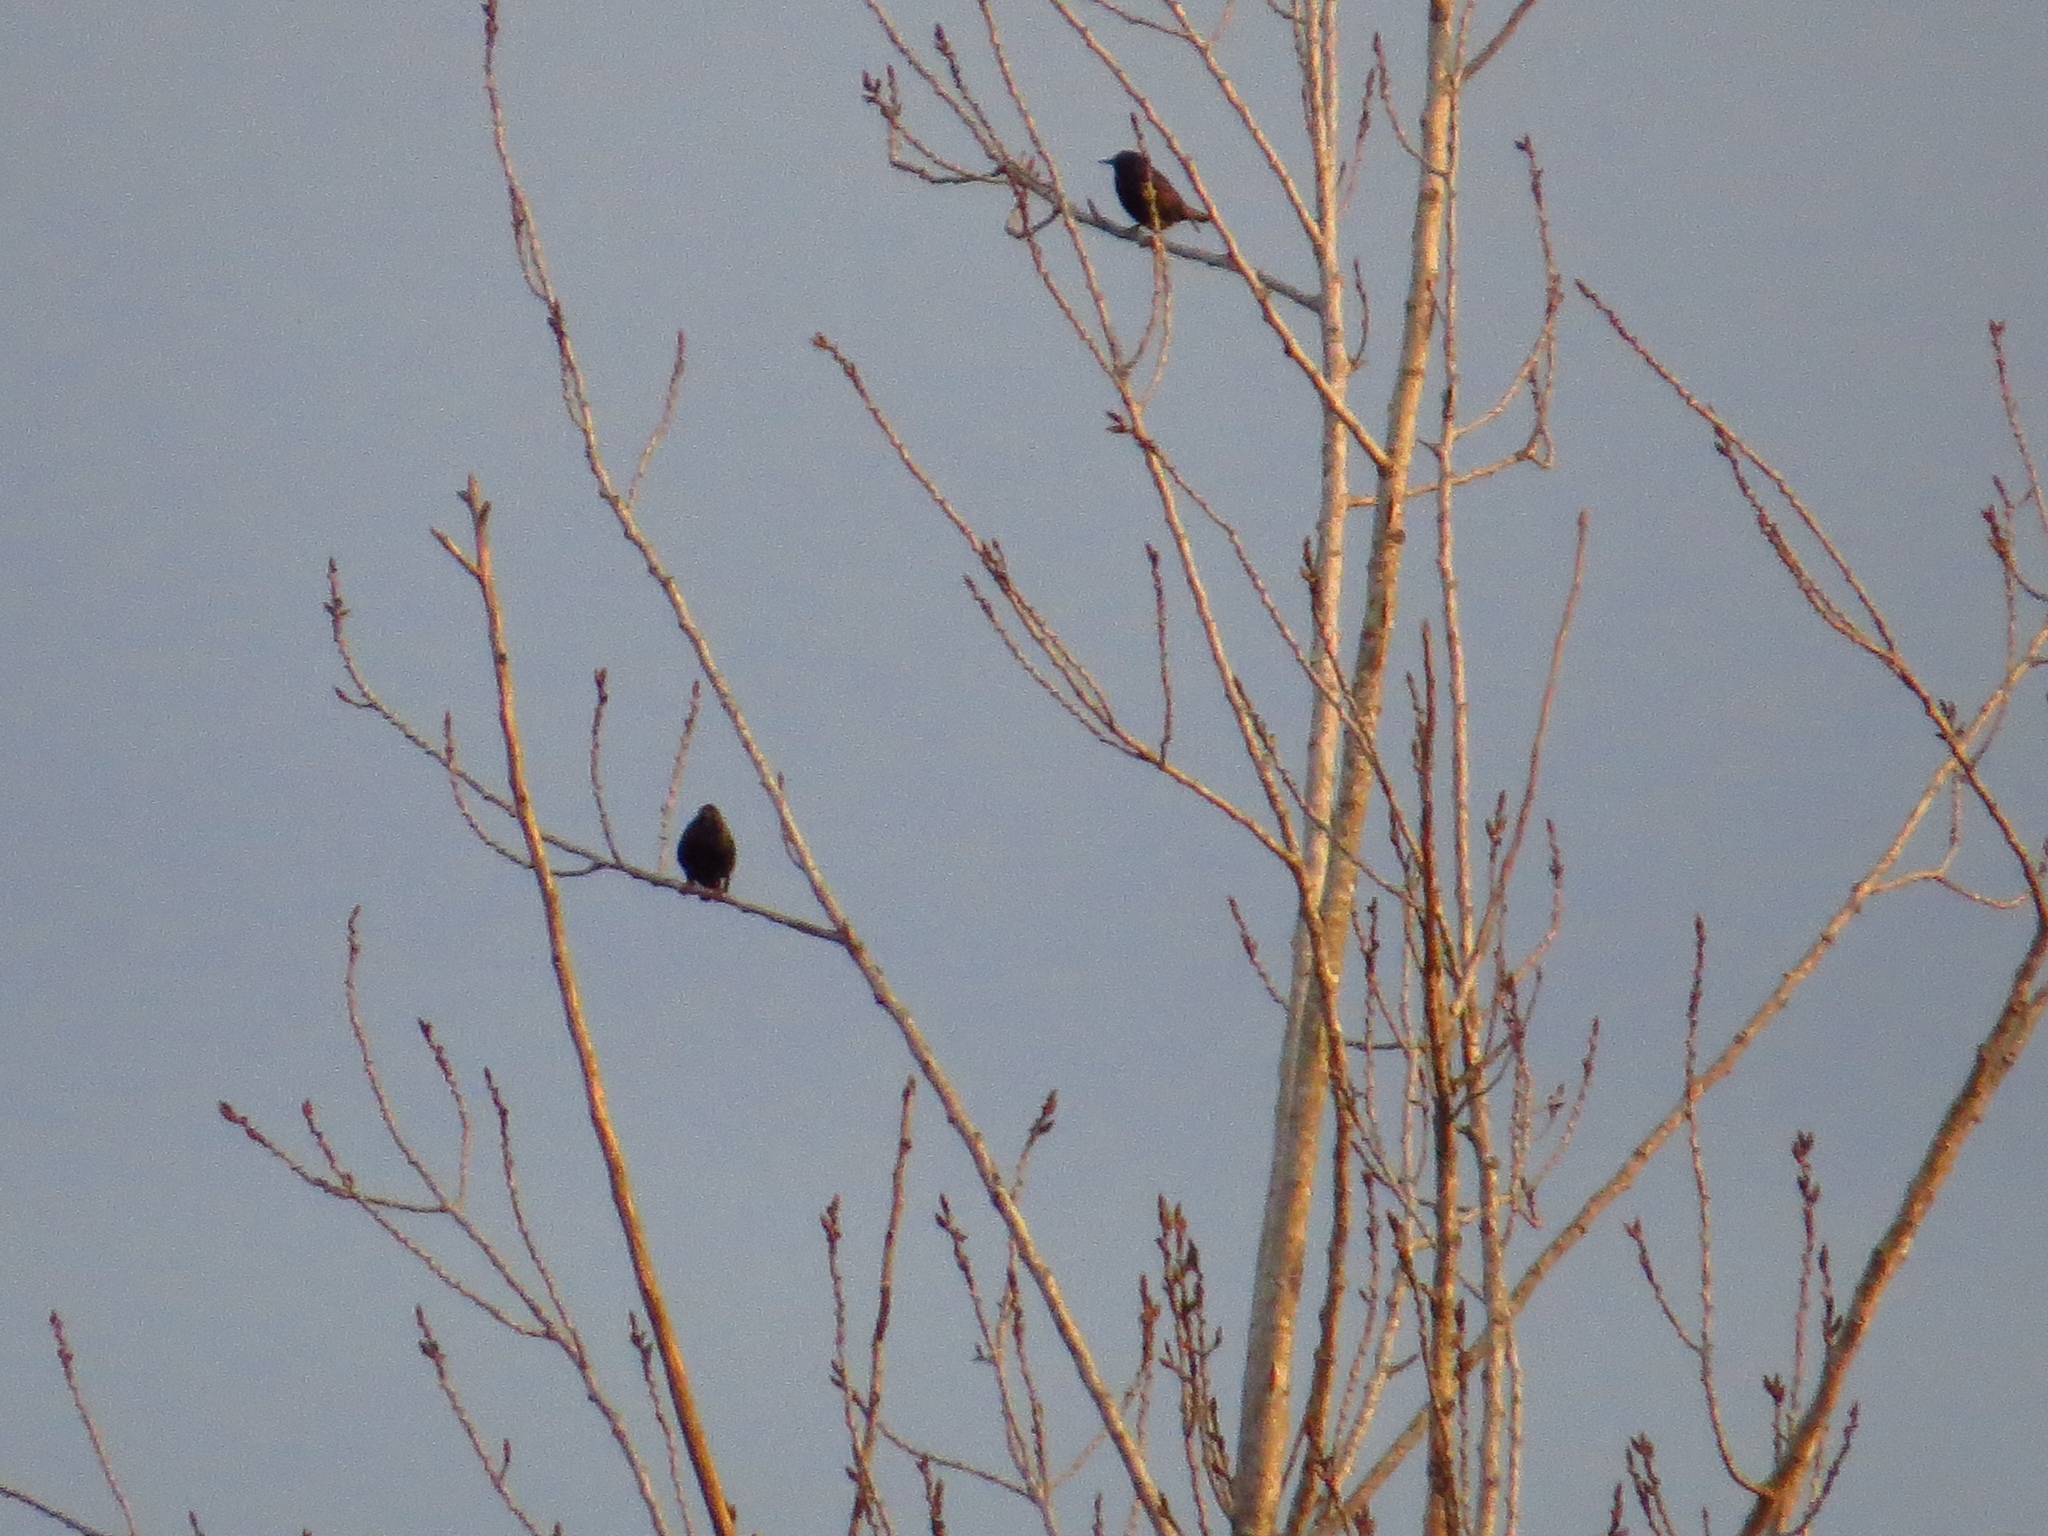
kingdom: Animalia
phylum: Chordata
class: Aves
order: Passeriformes
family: Sturnidae
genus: Sturnus
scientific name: Sturnus vulgaris
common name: Common starling
